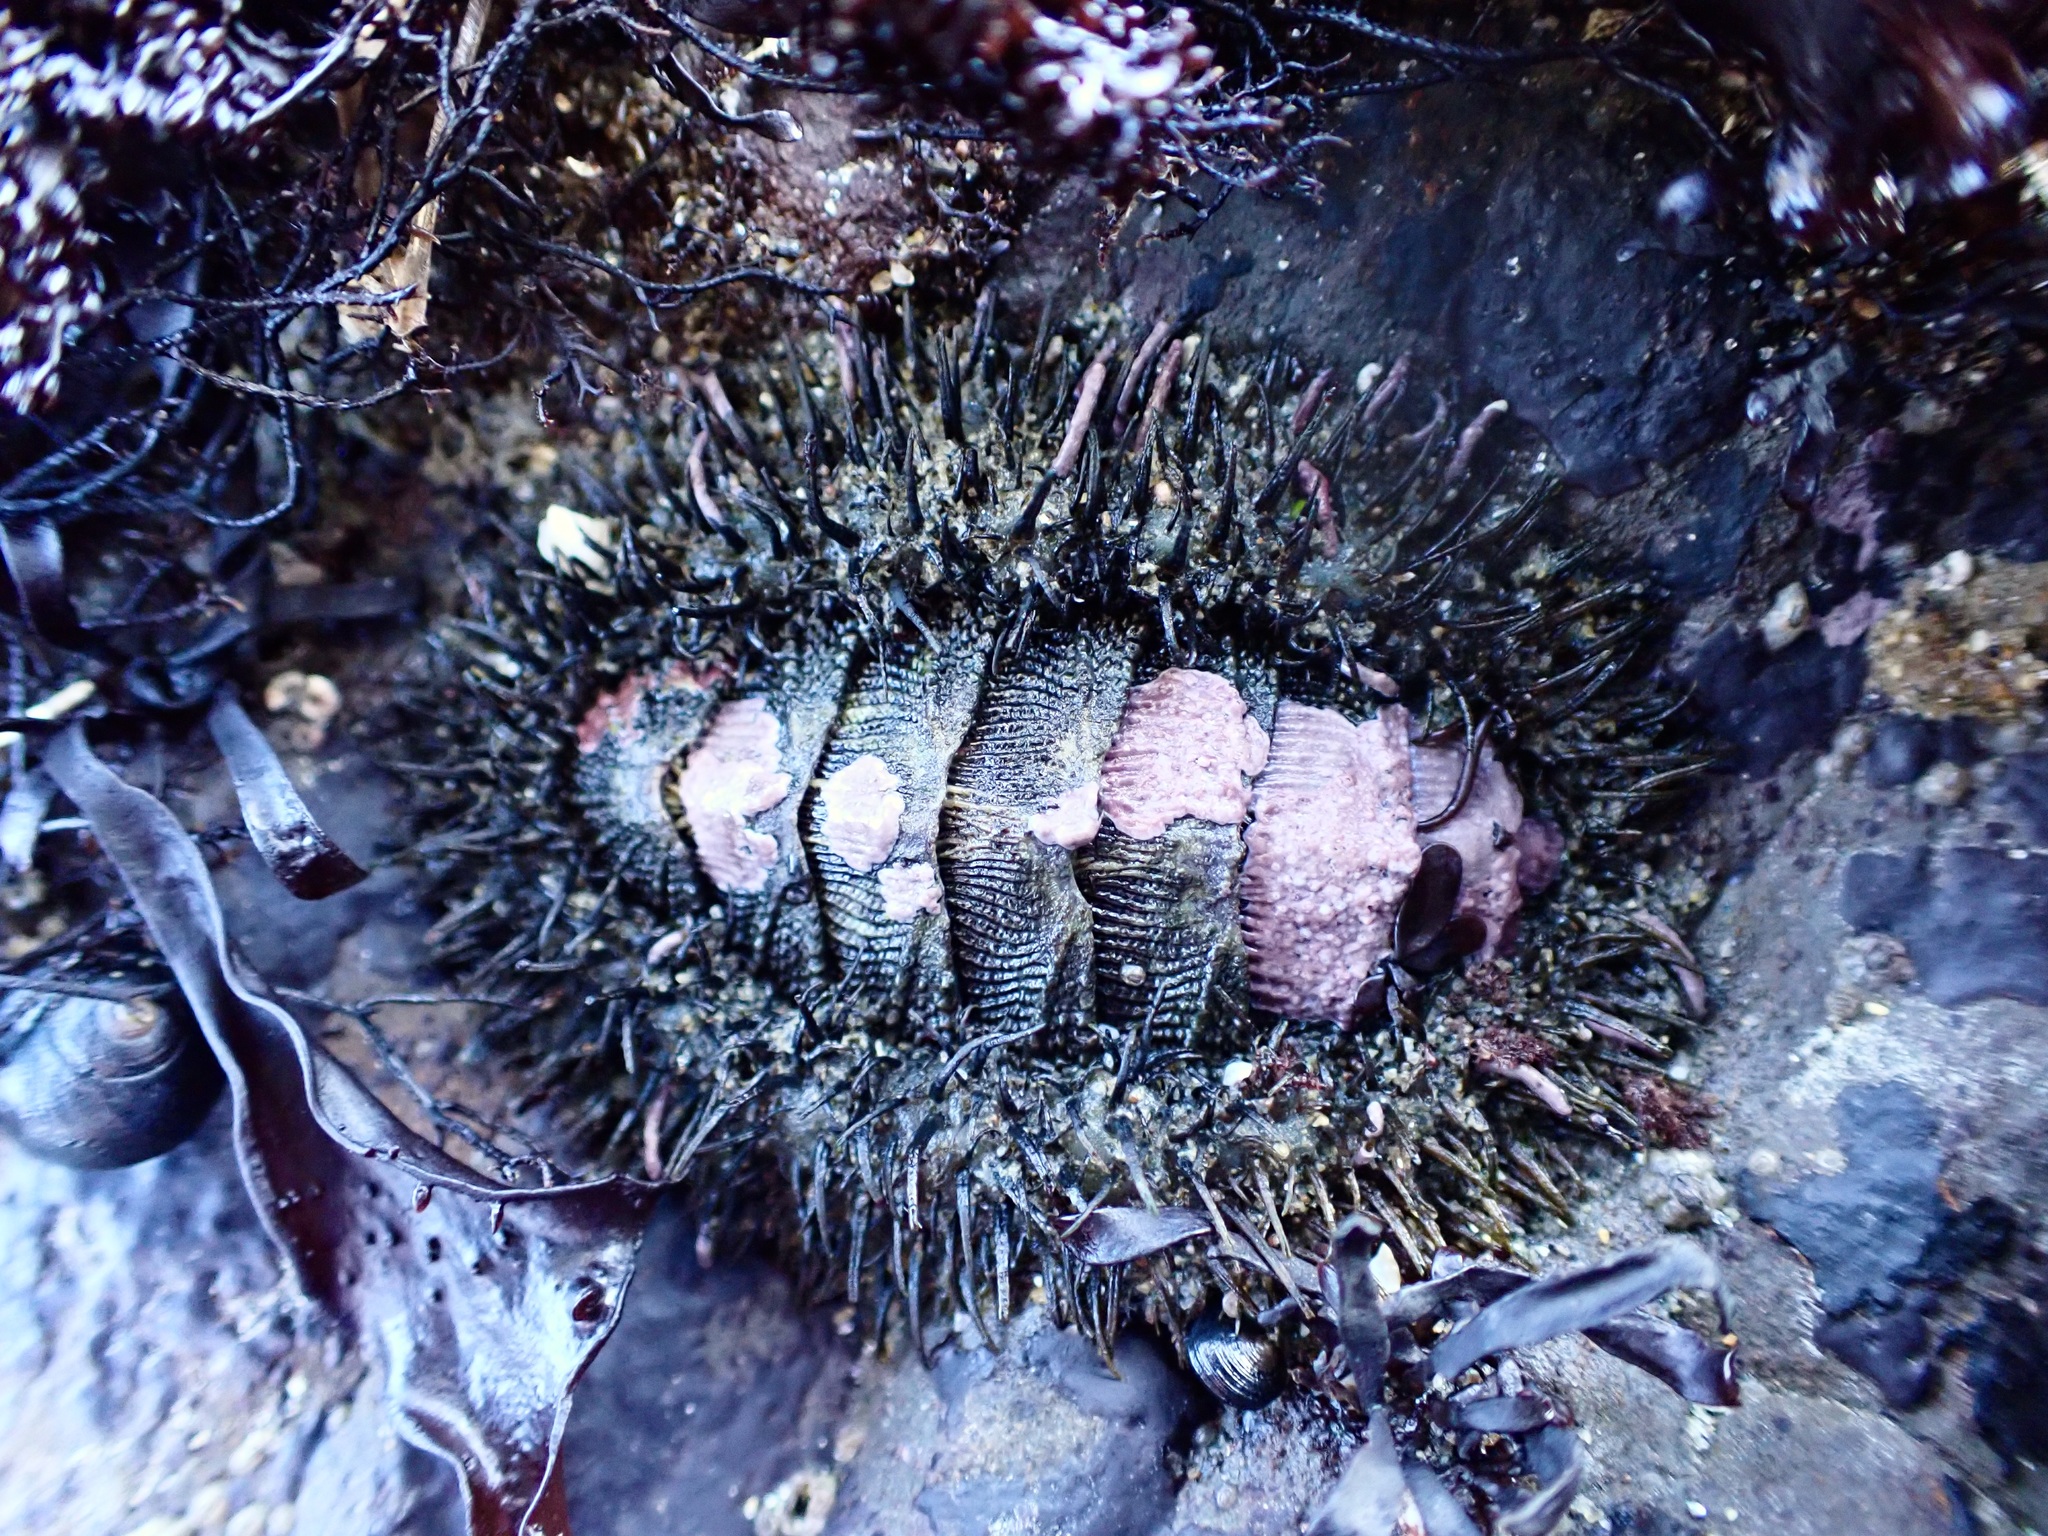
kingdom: Animalia
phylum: Mollusca
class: Polyplacophora
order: Chitonida
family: Mopaliidae
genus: Mopalia
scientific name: Mopalia muscosa
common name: Mossy chiton
